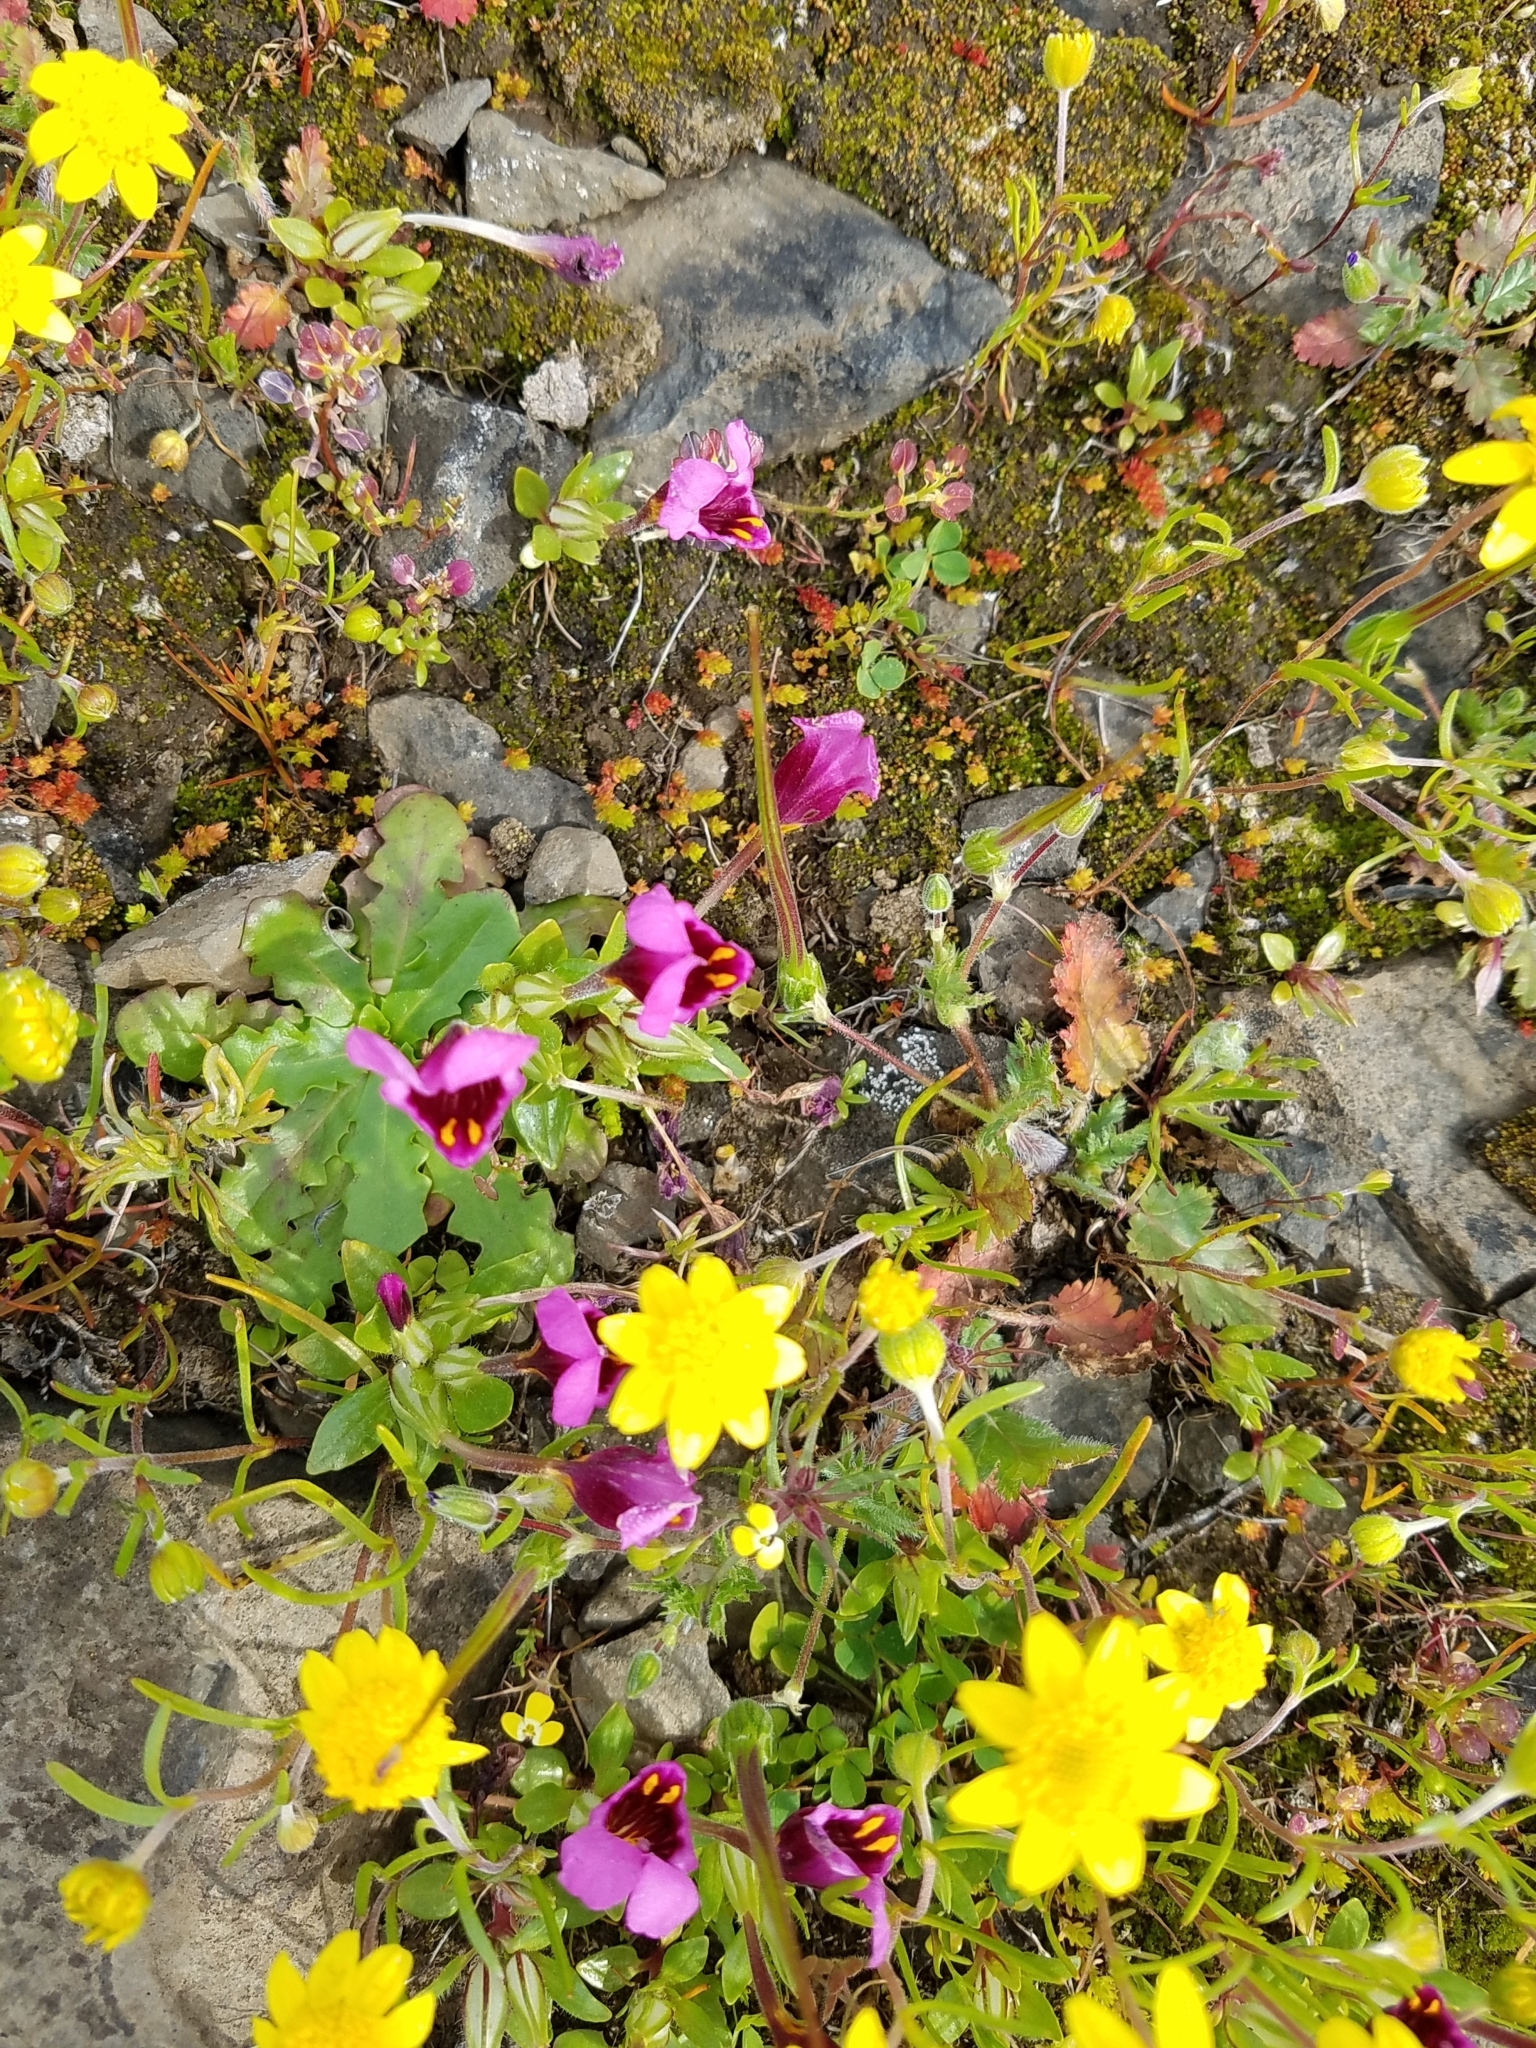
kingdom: Plantae
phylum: Tracheophyta
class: Magnoliopsida
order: Lamiales
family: Phrymaceae
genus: Diplacus
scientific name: Diplacus douglasii
